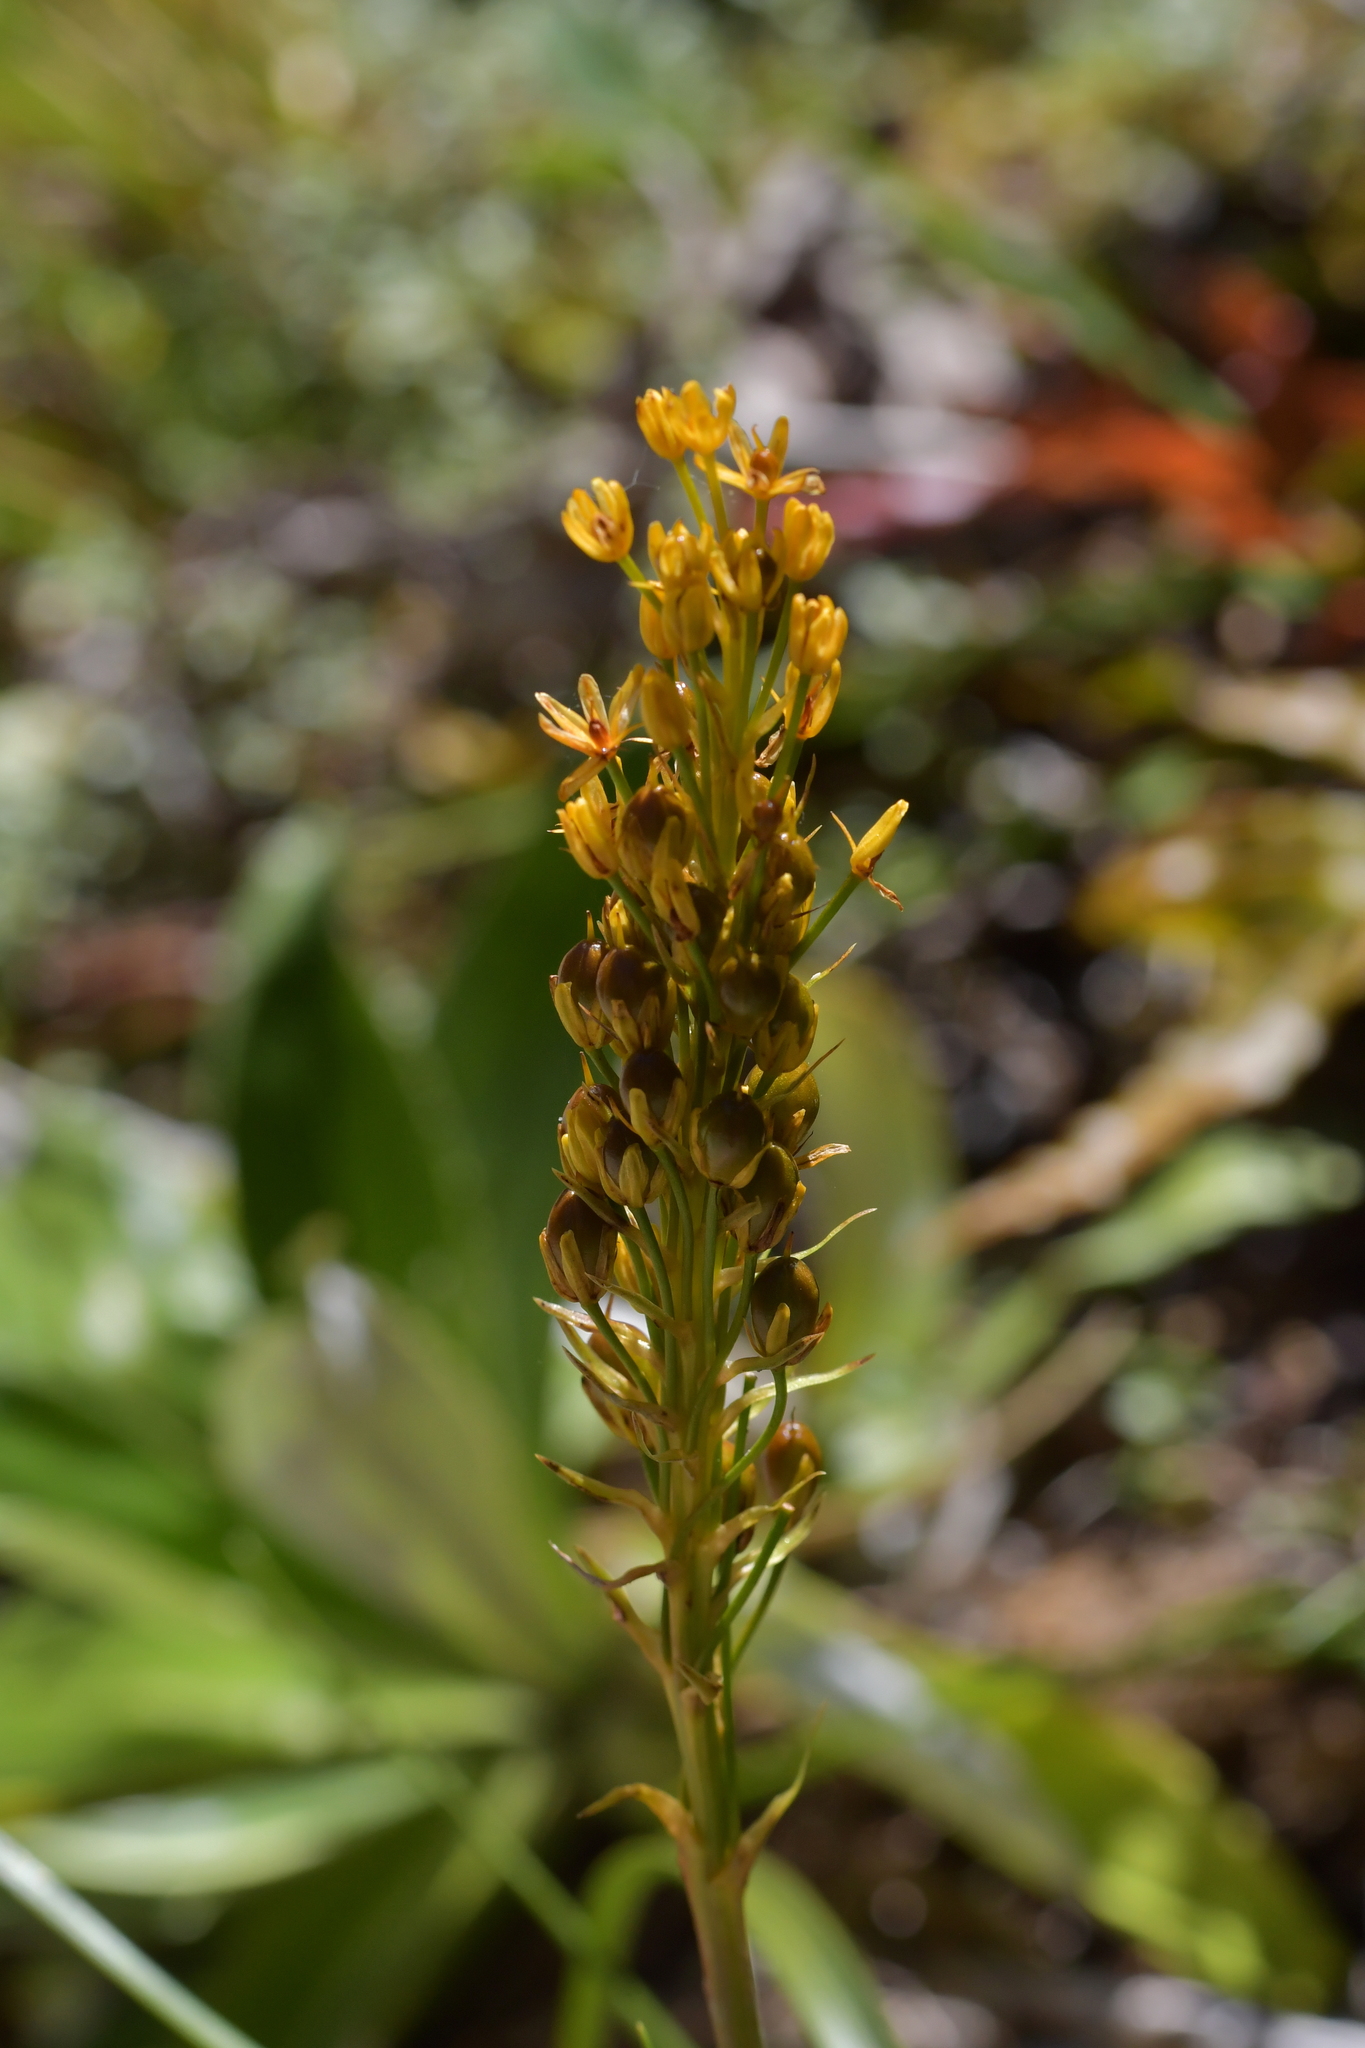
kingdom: Plantae
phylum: Tracheophyta
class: Liliopsida
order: Asparagales
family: Asphodelaceae
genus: Bulbinella
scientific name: Bulbinella gibbsii
